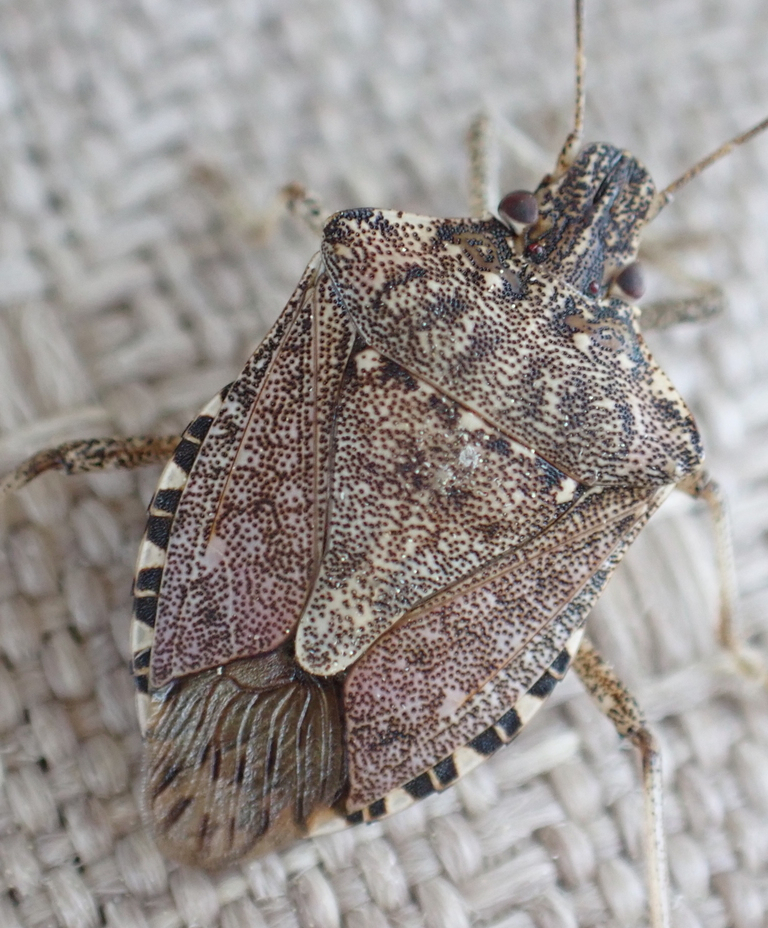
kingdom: Animalia
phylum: Arthropoda
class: Insecta
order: Hemiptera
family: Pentatomidae
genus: Halyomorpha
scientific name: Halyomorpha halys
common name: Brown marmorated stink bug
